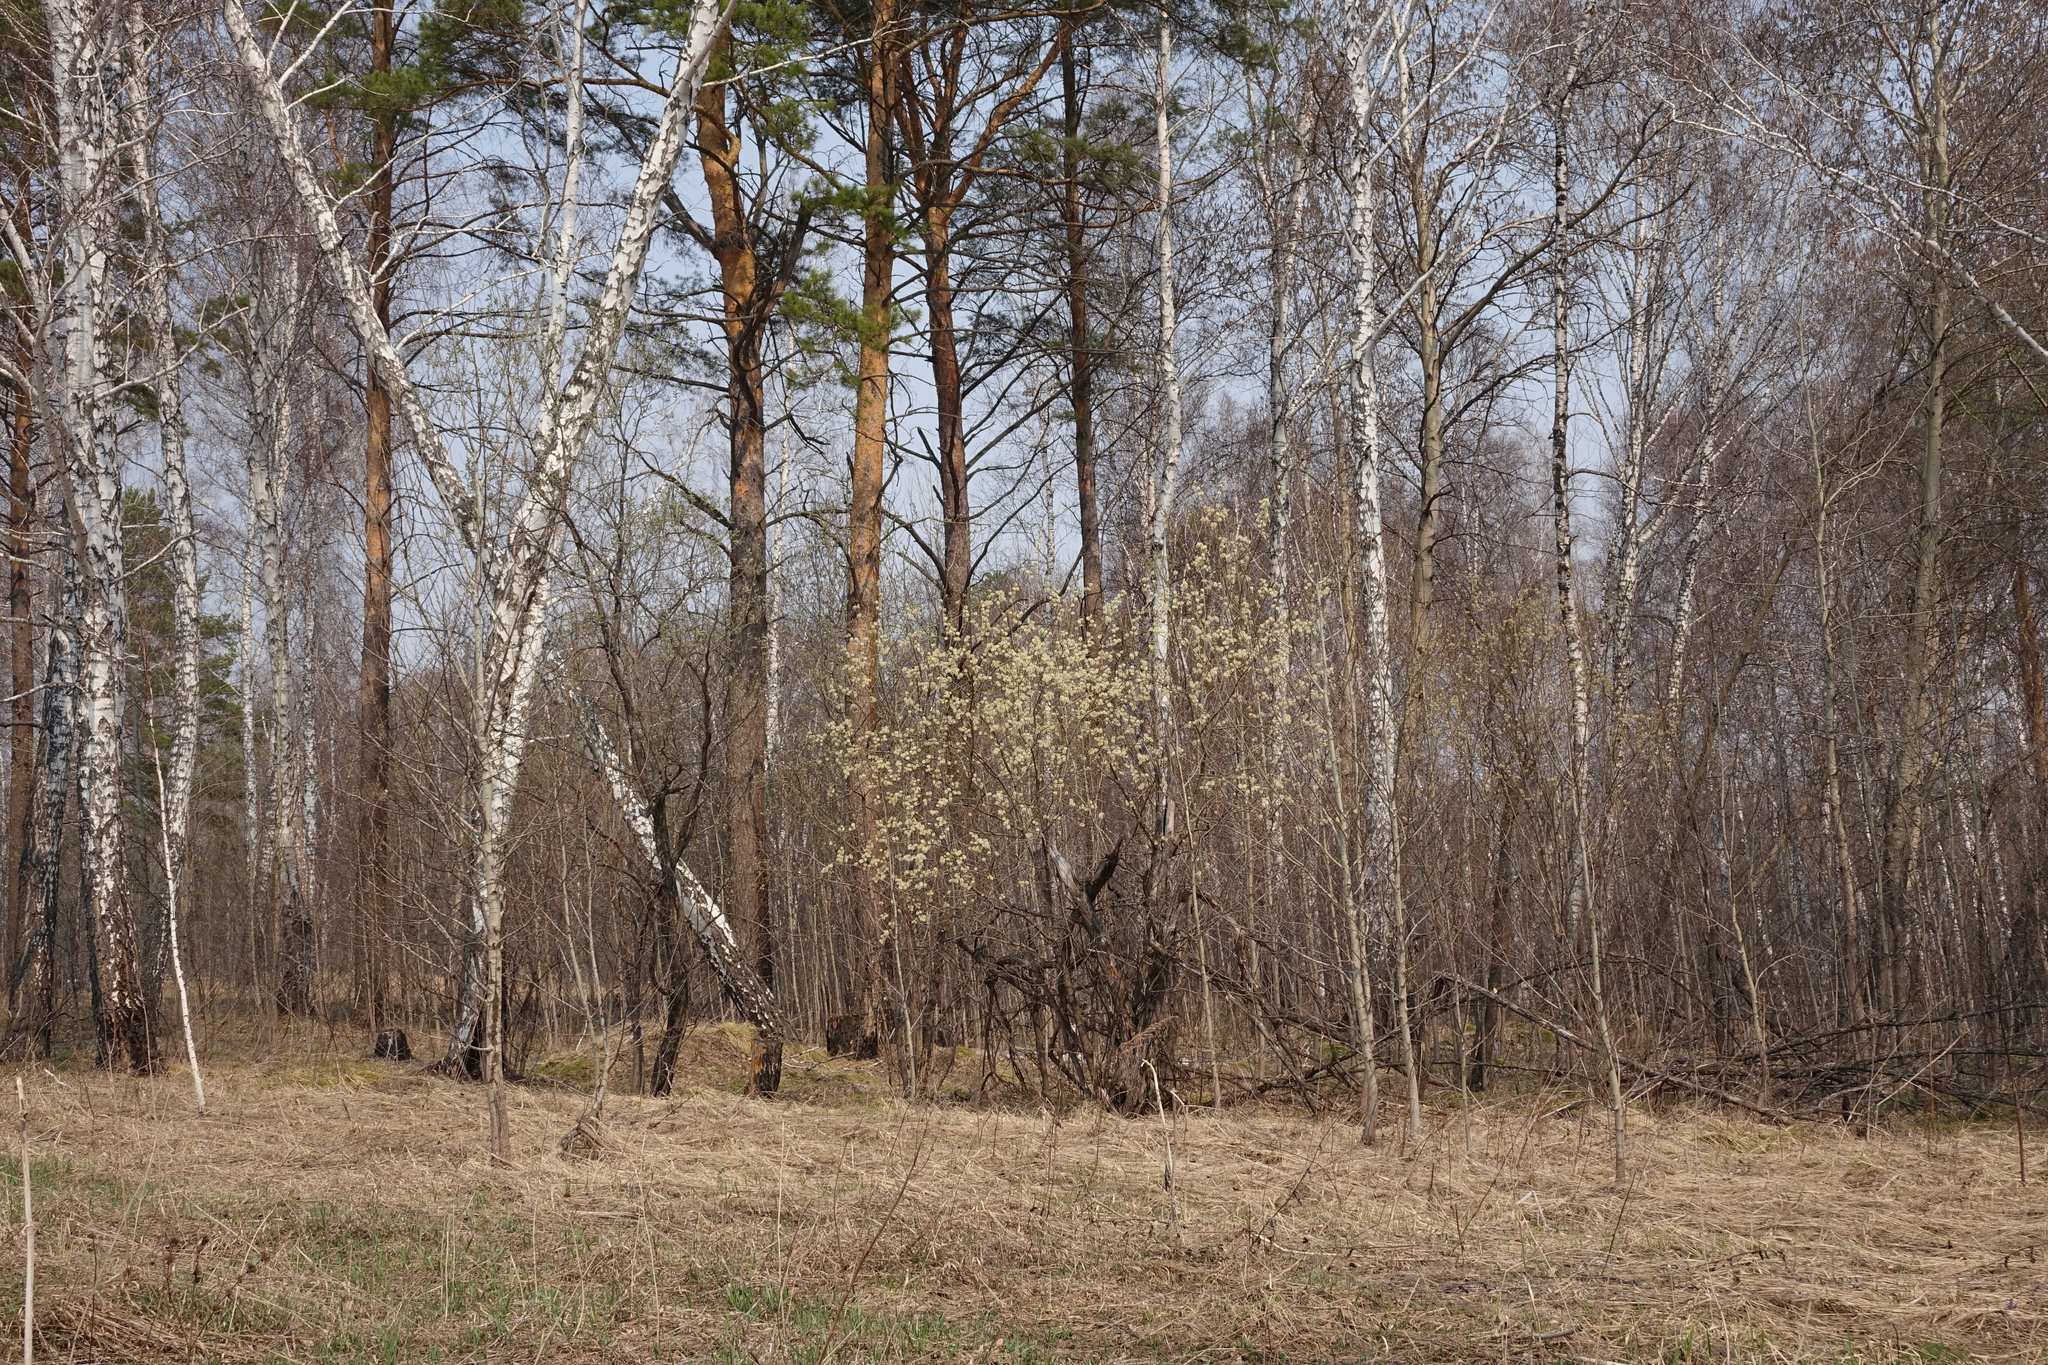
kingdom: Plantae
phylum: Tracheophyta
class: Magnoliopsida
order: Fagales
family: Betulaceae
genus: Betula
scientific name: Betula pendula
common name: Silver birch
